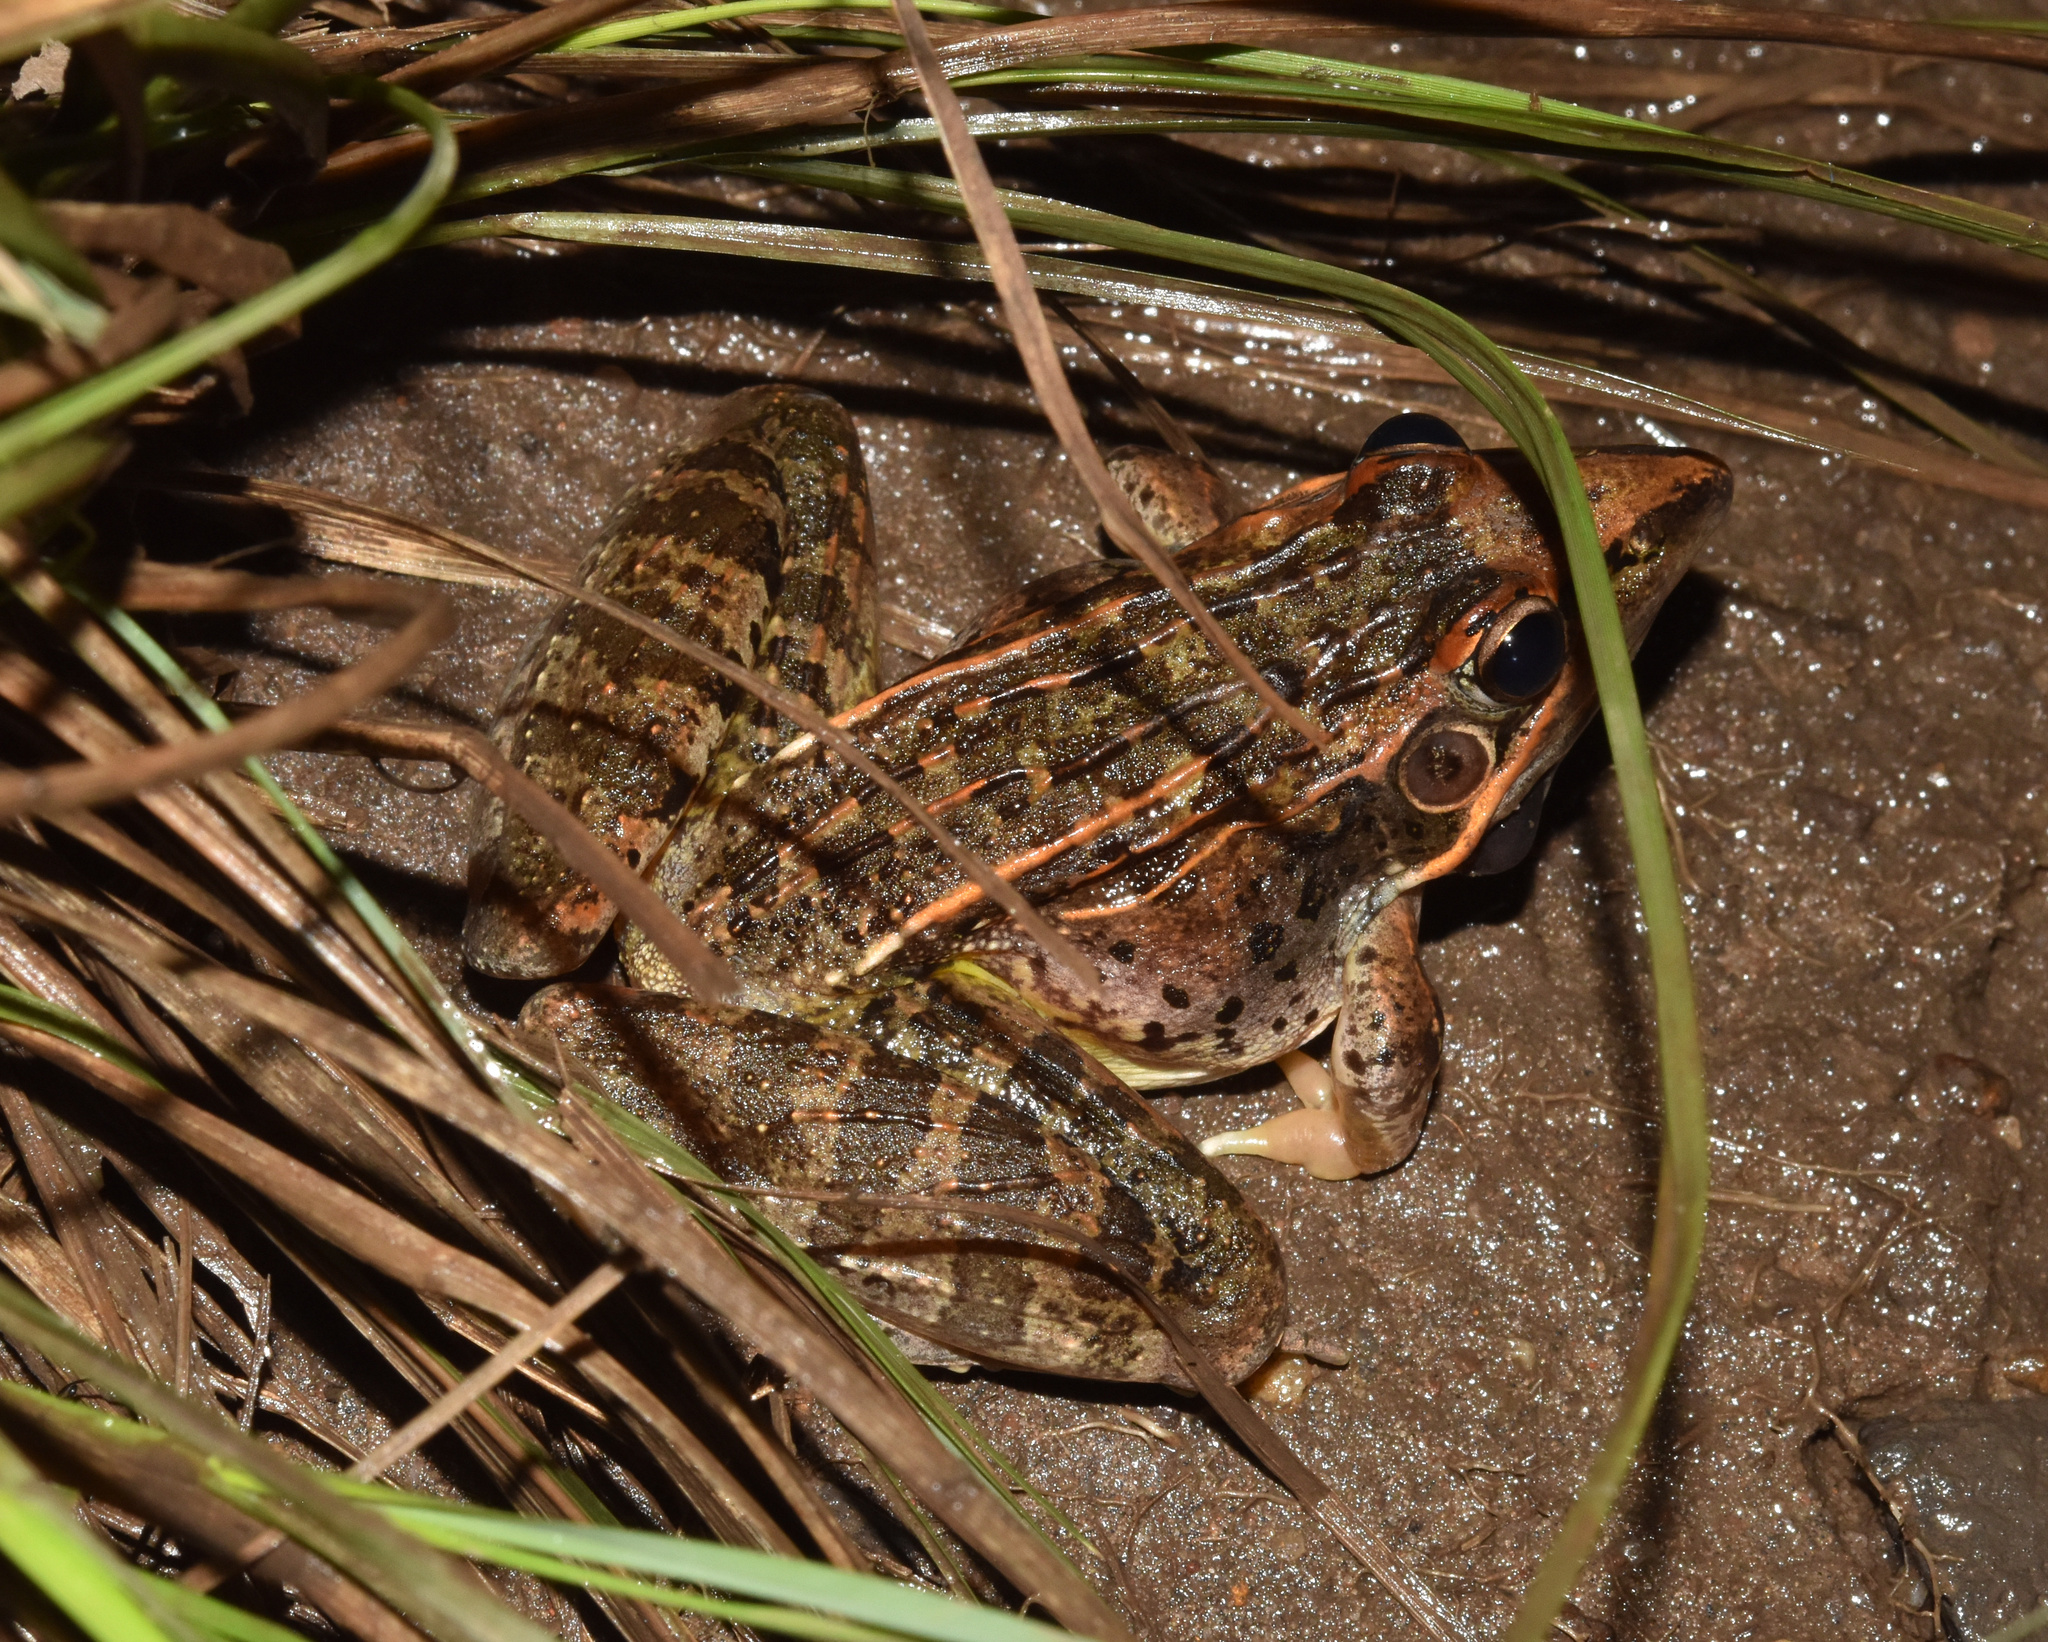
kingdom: Animalia
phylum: Chordata
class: Amphibia
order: Anura
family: Ptychadenidae
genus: Ptychadena
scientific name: Ptychadena oxyrhynchus
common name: Sharp-nosed ridged frog
